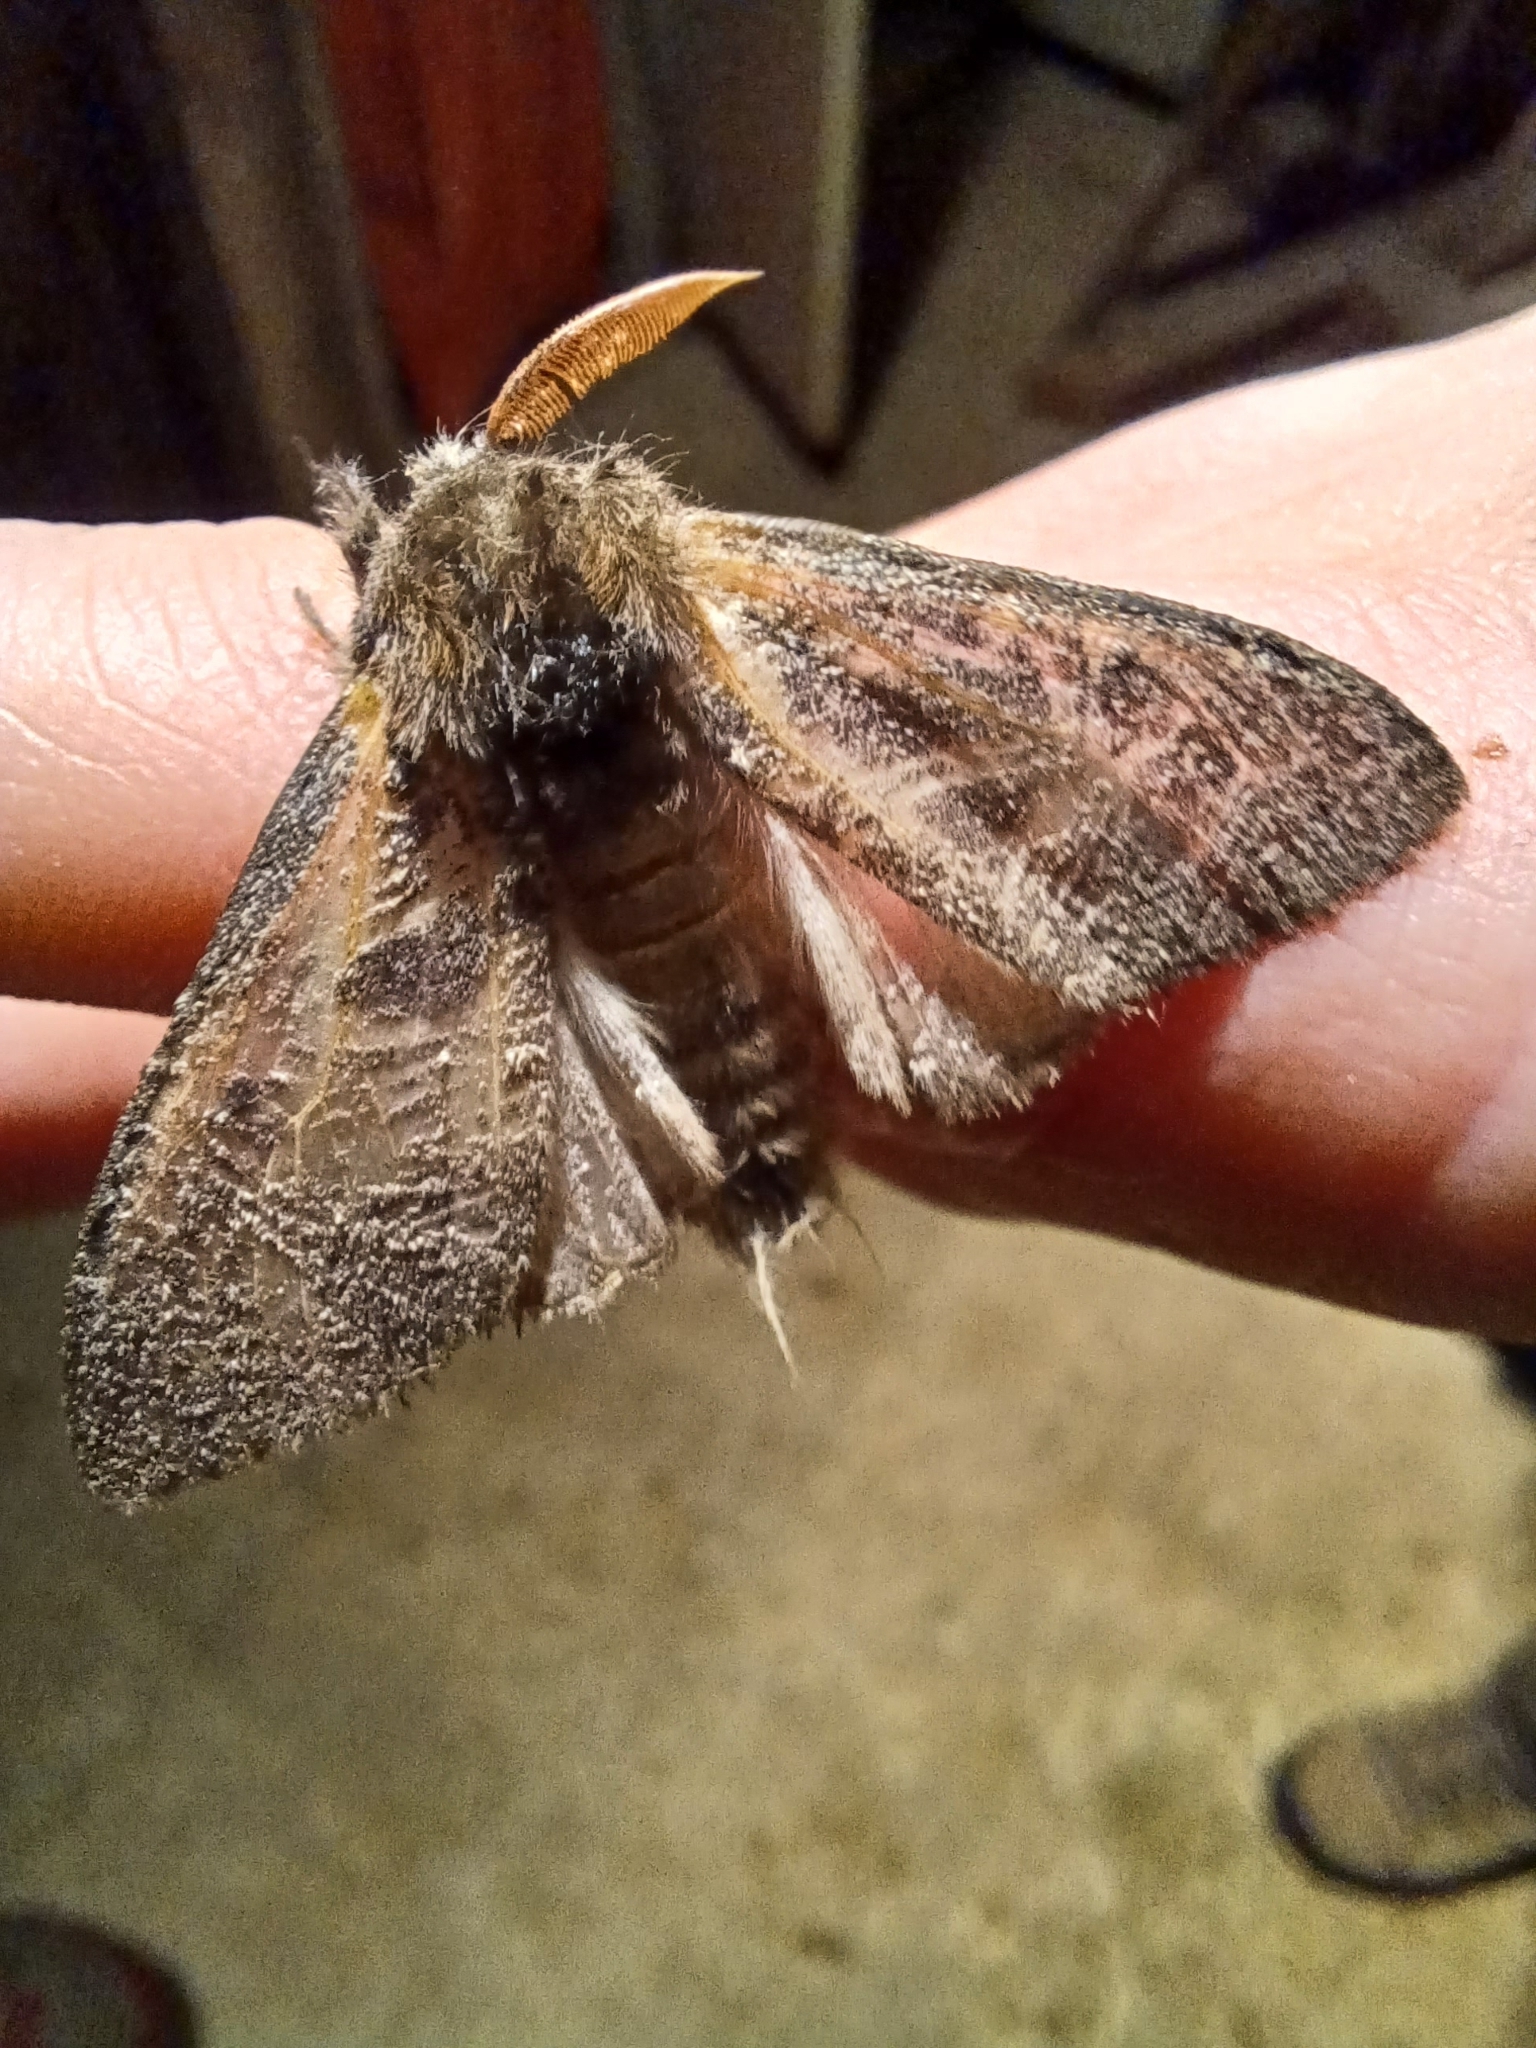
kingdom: Animalia
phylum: Arthropoda
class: Insecta
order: Lepidoptera
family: Erebidae
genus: Calliteara
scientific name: Calliteara pudibunda
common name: Pale tussock
